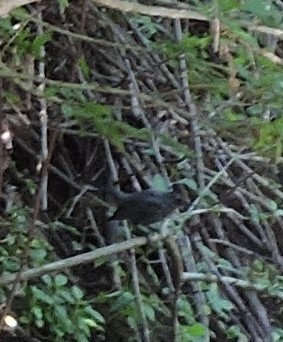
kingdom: Animalia
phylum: Chordata
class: Aves
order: Passeriformes
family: Mimidae
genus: Dumetella
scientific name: Dumetella carolinensis
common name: Gray catbird
